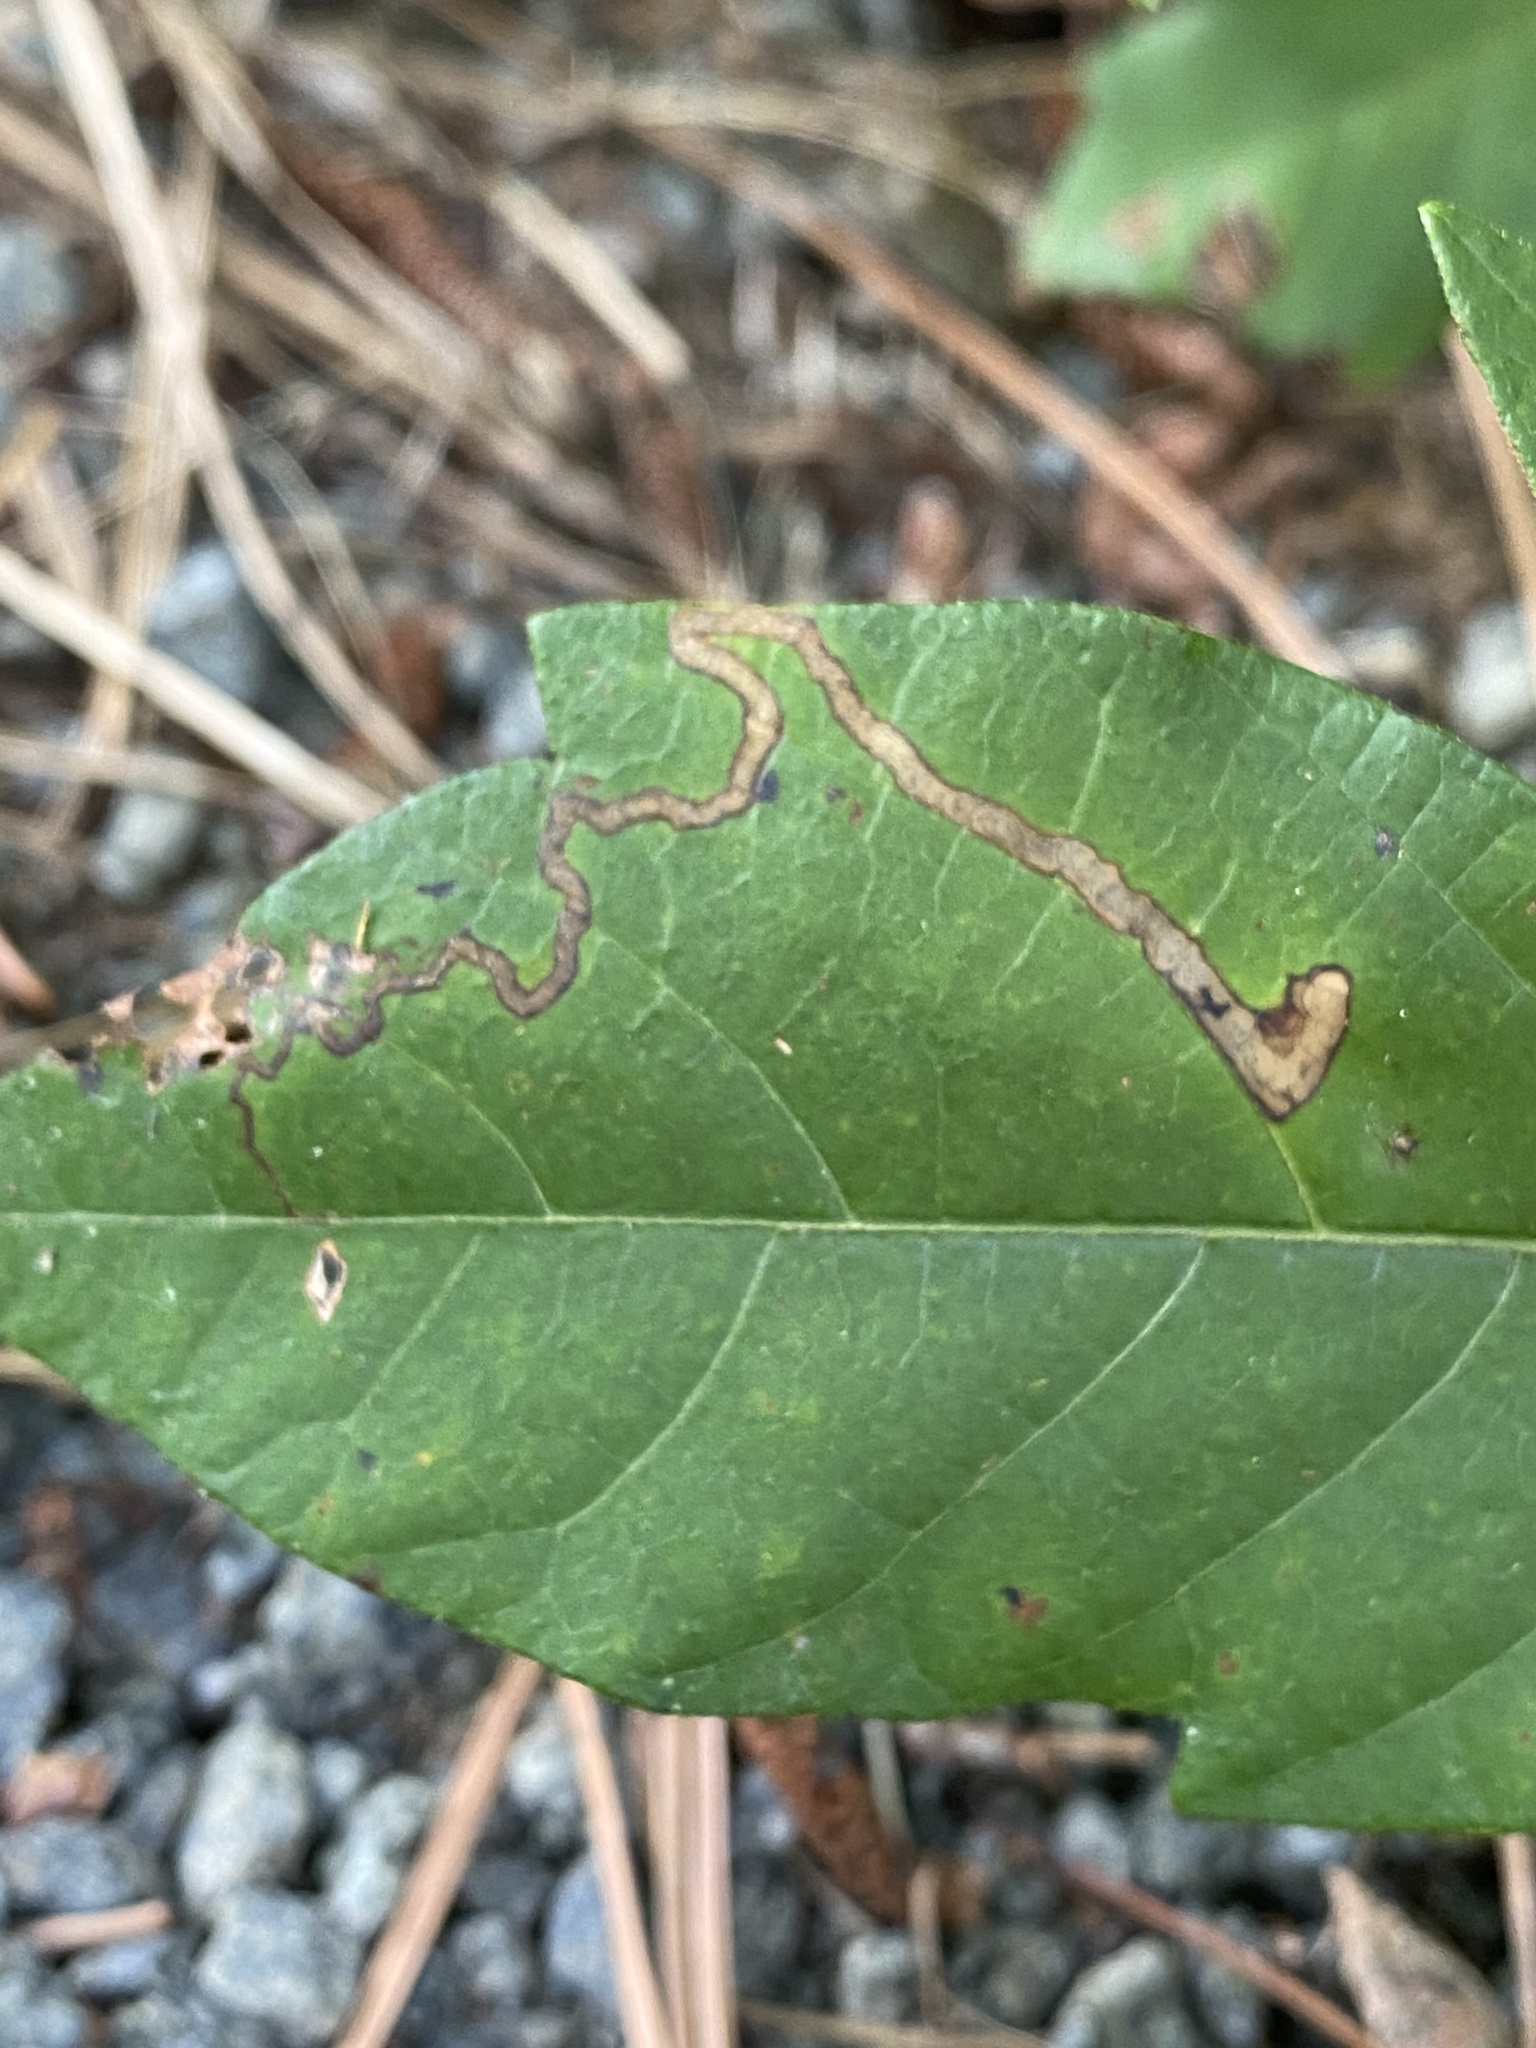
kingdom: Animalia
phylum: Arthropoda
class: Insecta
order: Lepidoptera
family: Nepticulidae
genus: Stigmella
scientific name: Stigmella rhoifoliella
